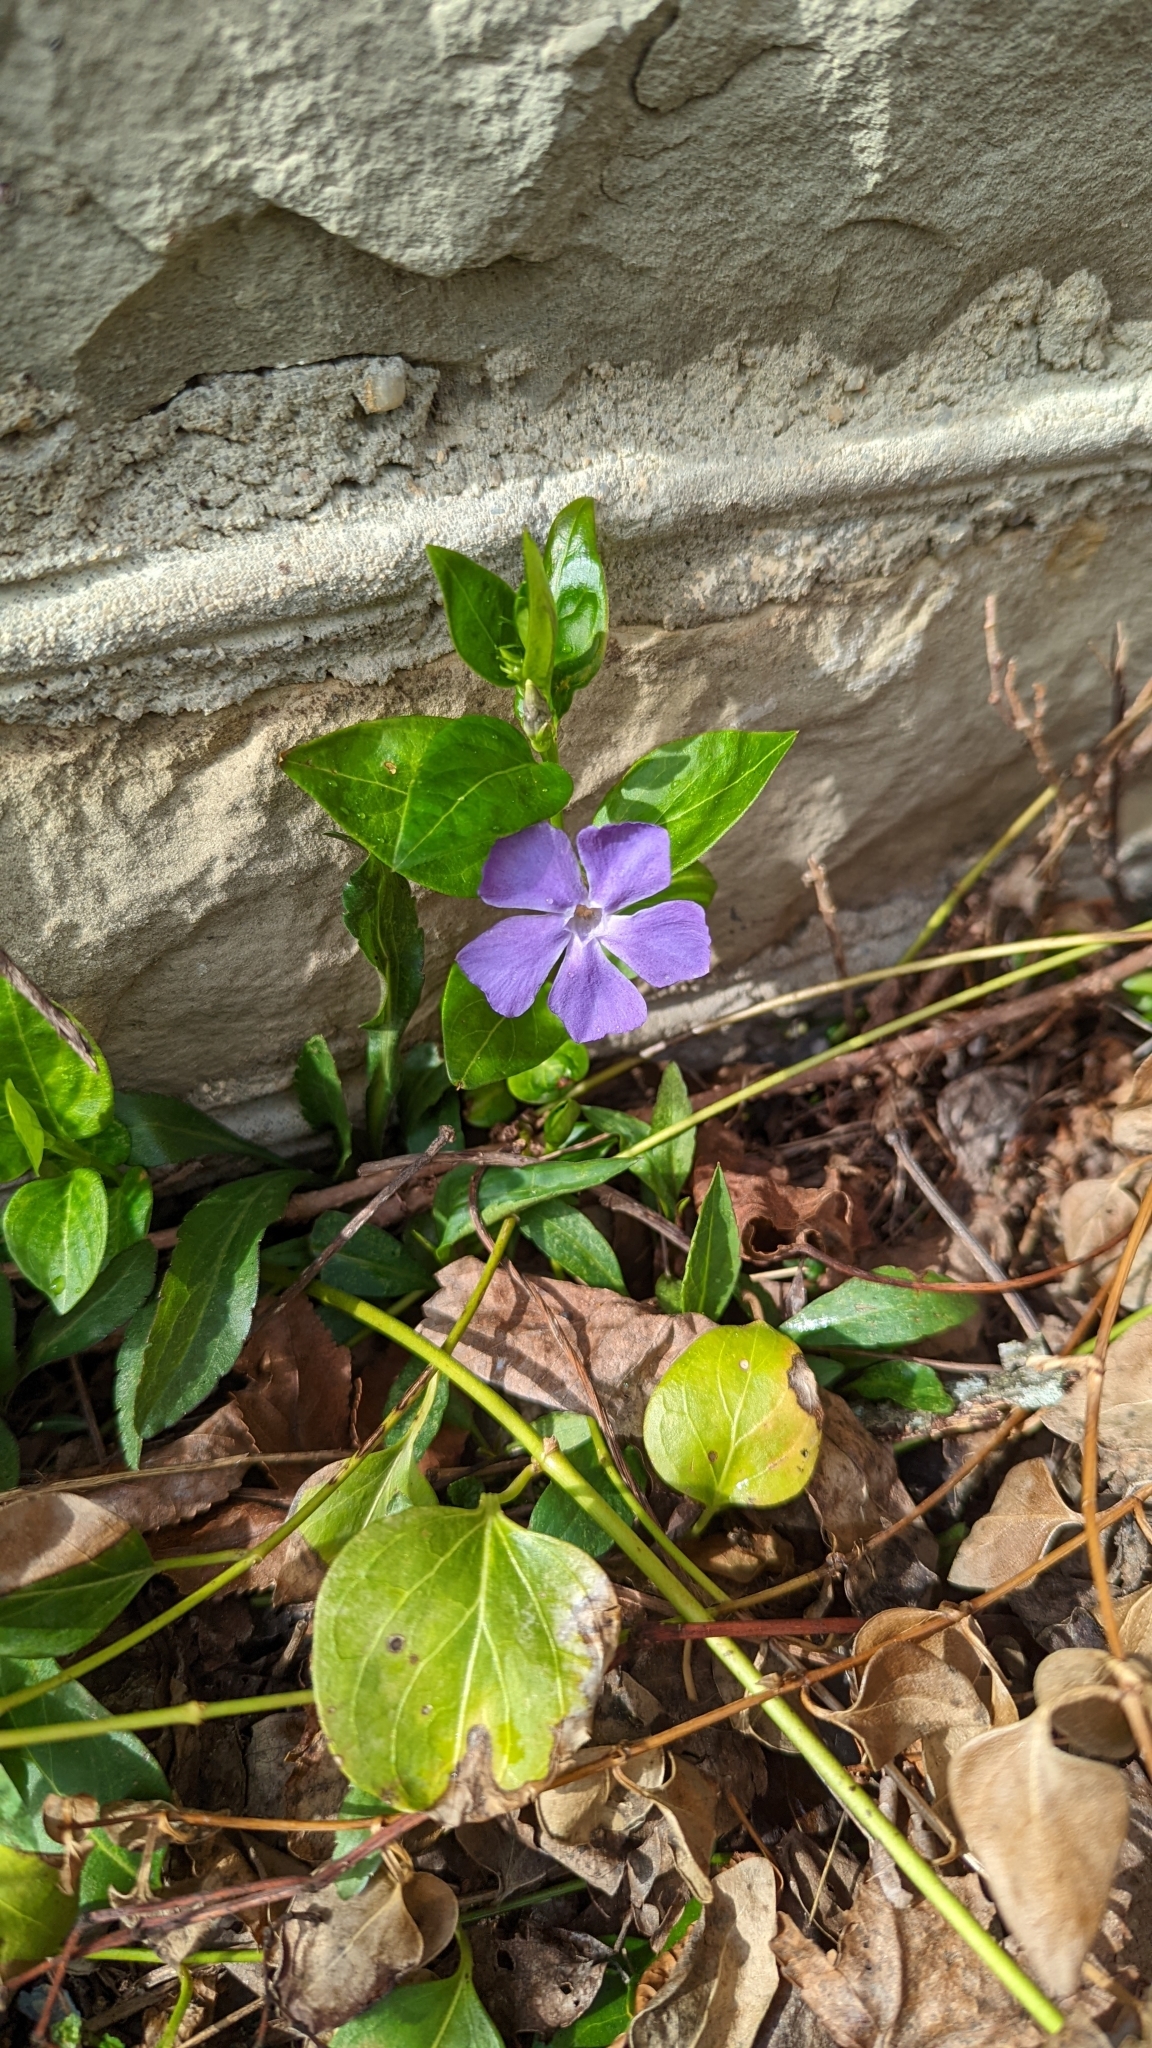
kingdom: Plantae
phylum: Tracheophyta
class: Magnoliopsida
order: Gentianales
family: Apocynaceae
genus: Vinca
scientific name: Vinca major
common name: Greater periwinkle
